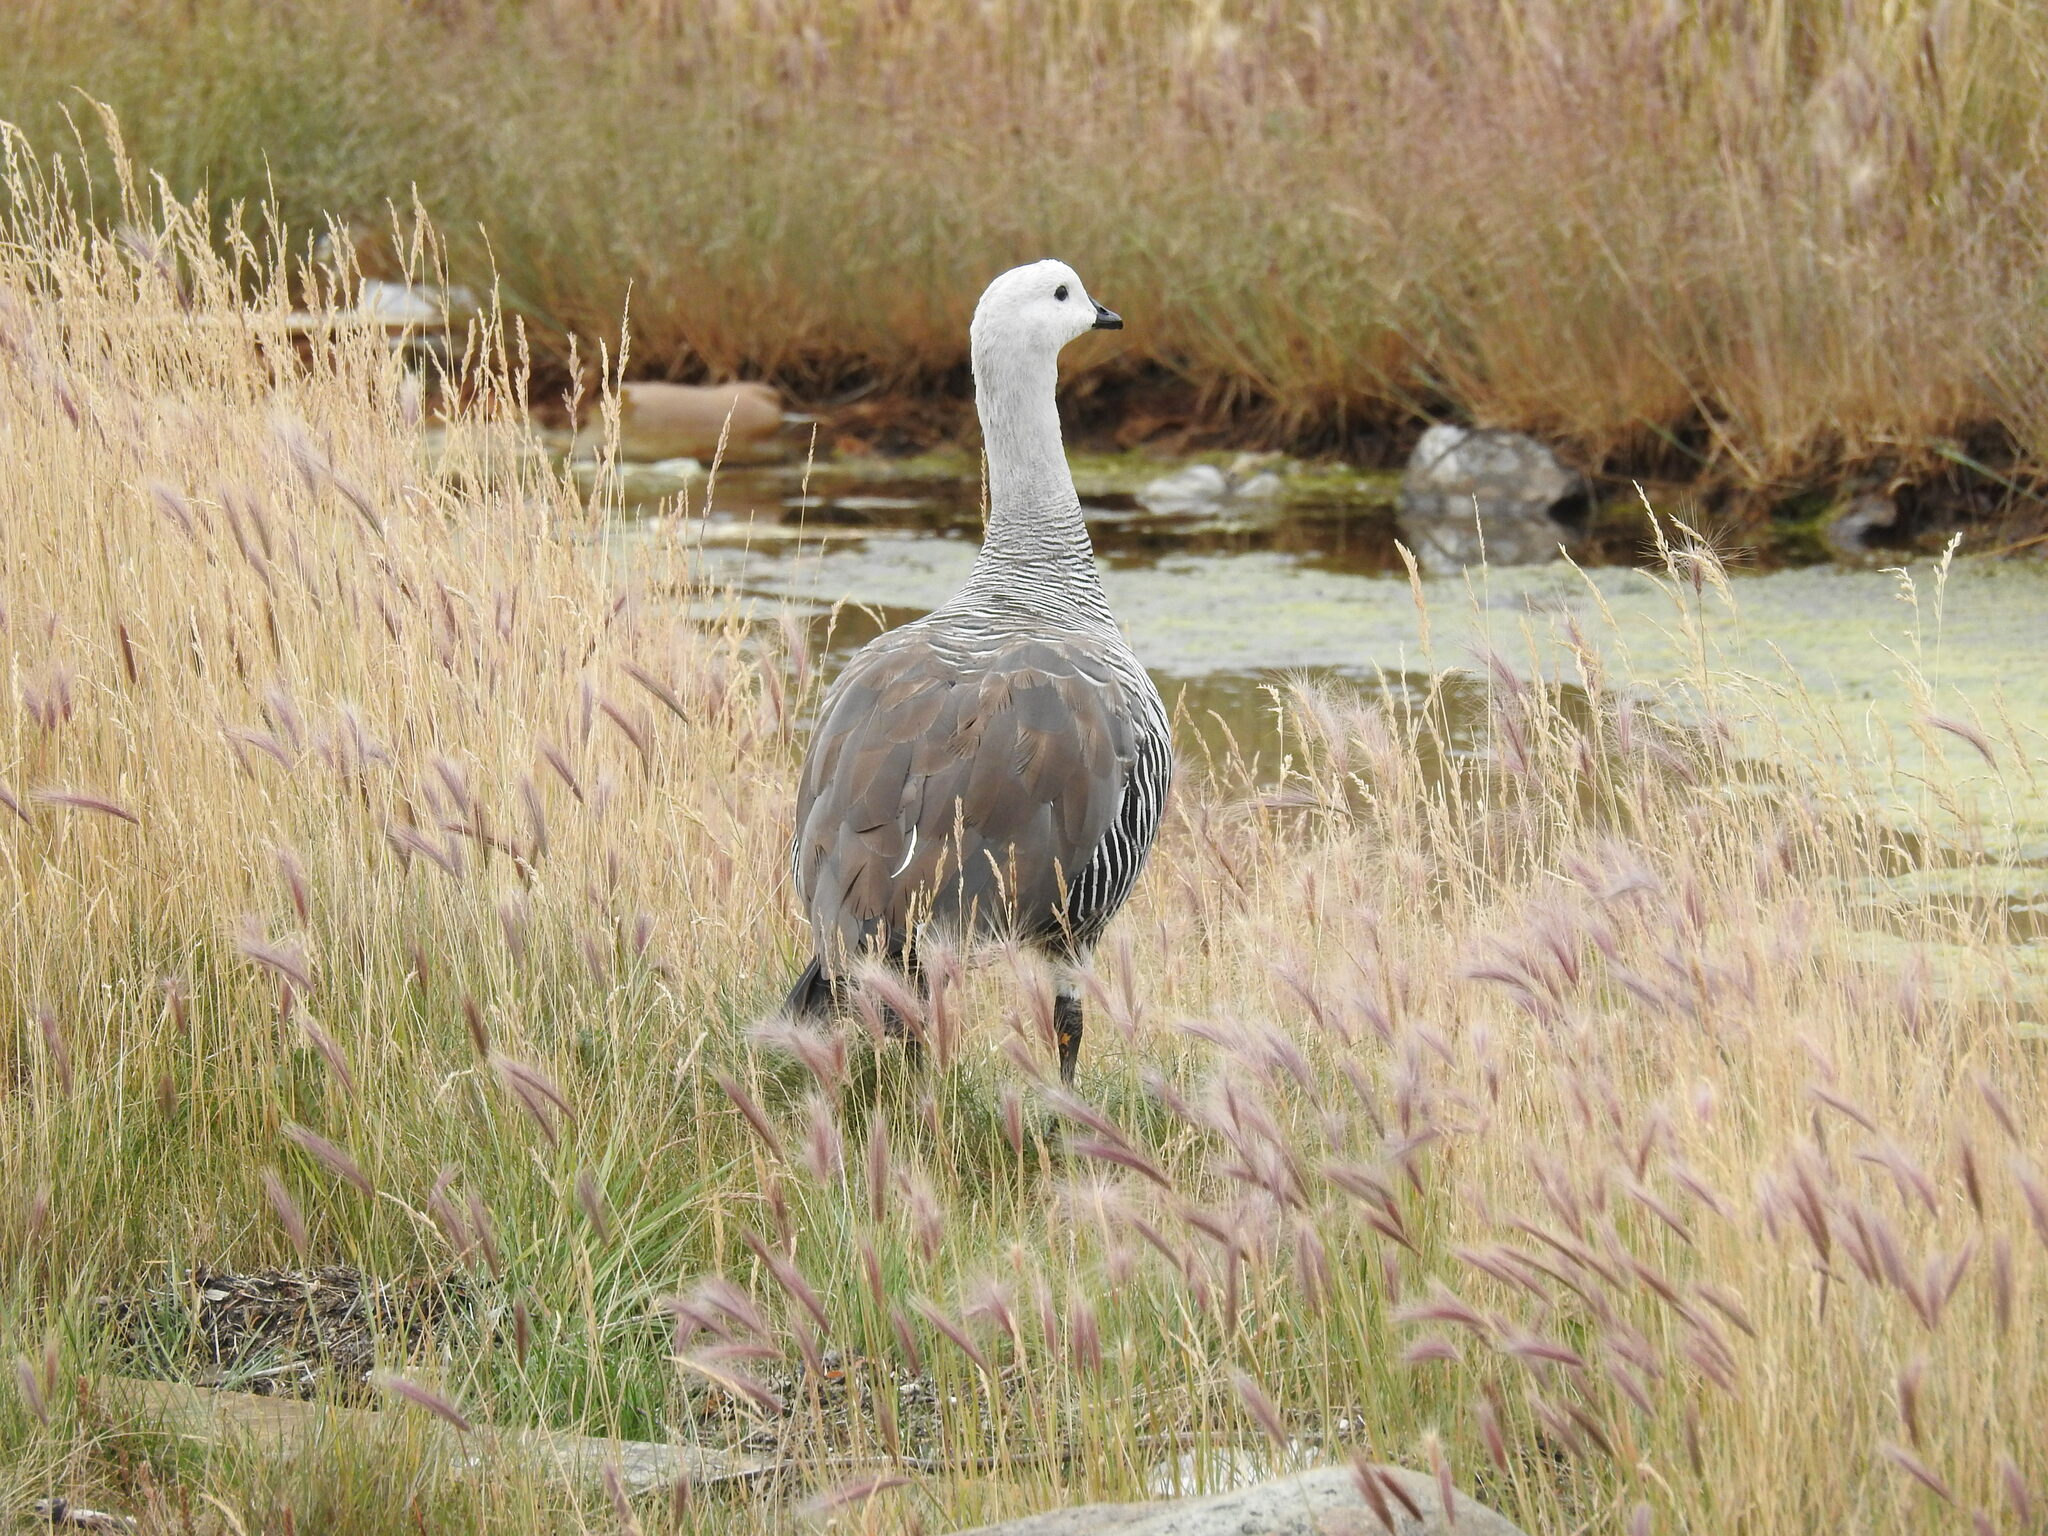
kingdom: Animalia
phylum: Chordata
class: Aves
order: Anseriformes
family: Anatidae
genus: Chloephaga
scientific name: Chloephaga picta
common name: Upland goose
